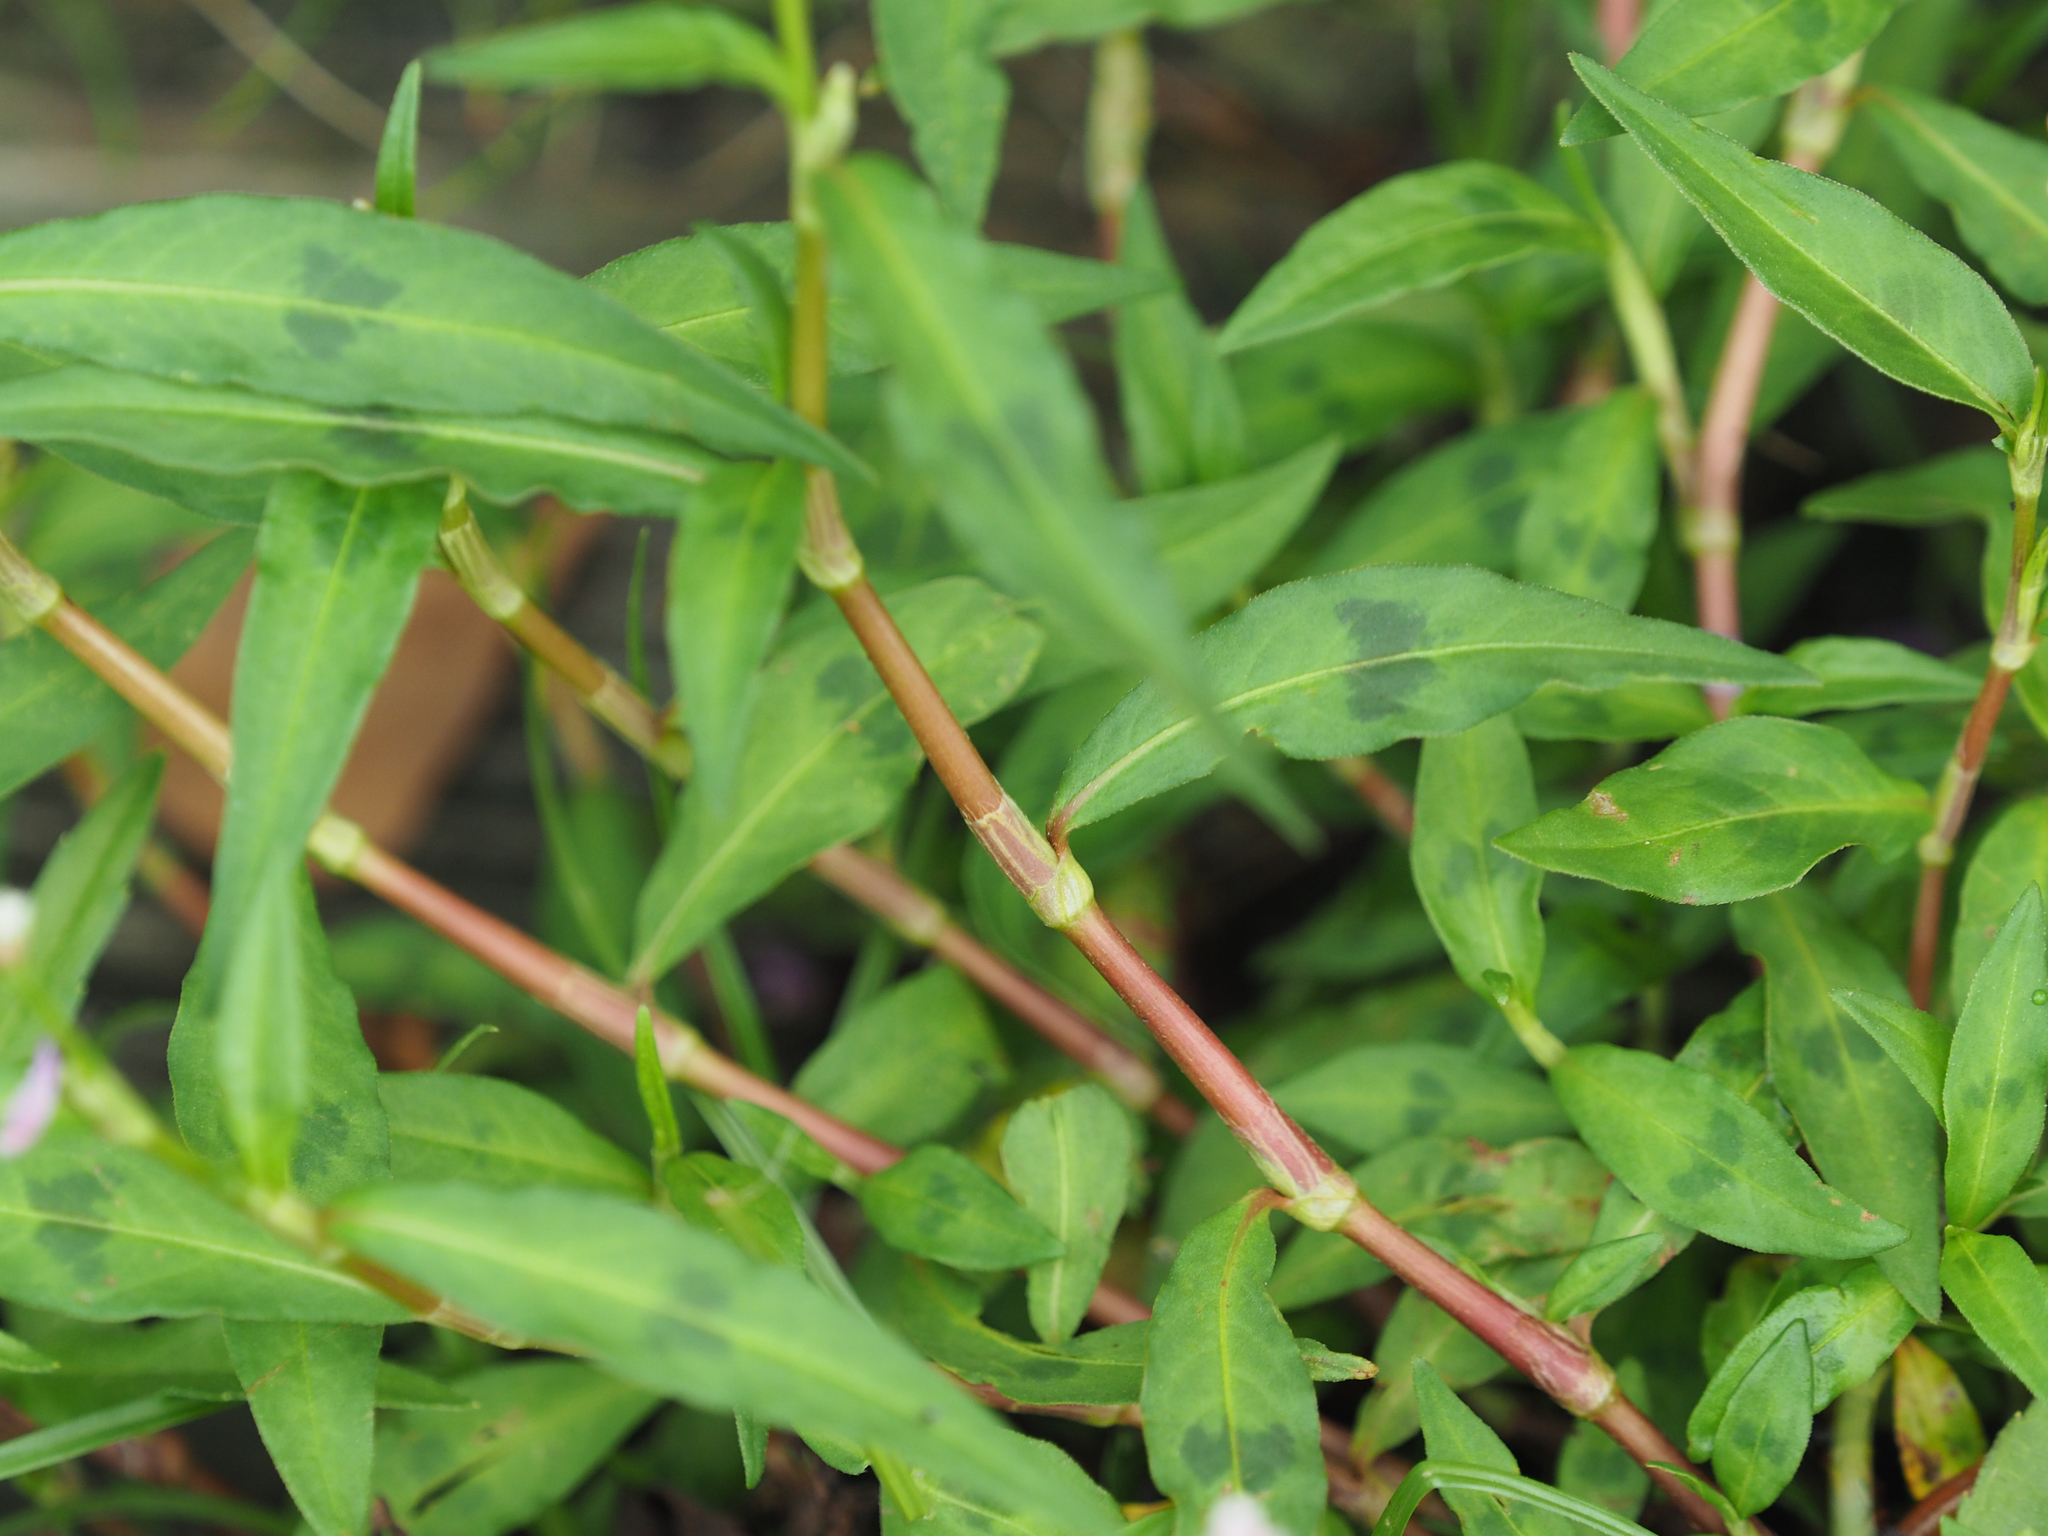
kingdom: Plantae
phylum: Tracheophyta
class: Magnoliopsida
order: Caryophyllales
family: Polygonaceae
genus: Persicaria
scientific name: Persicaria maculosa
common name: Redshank
